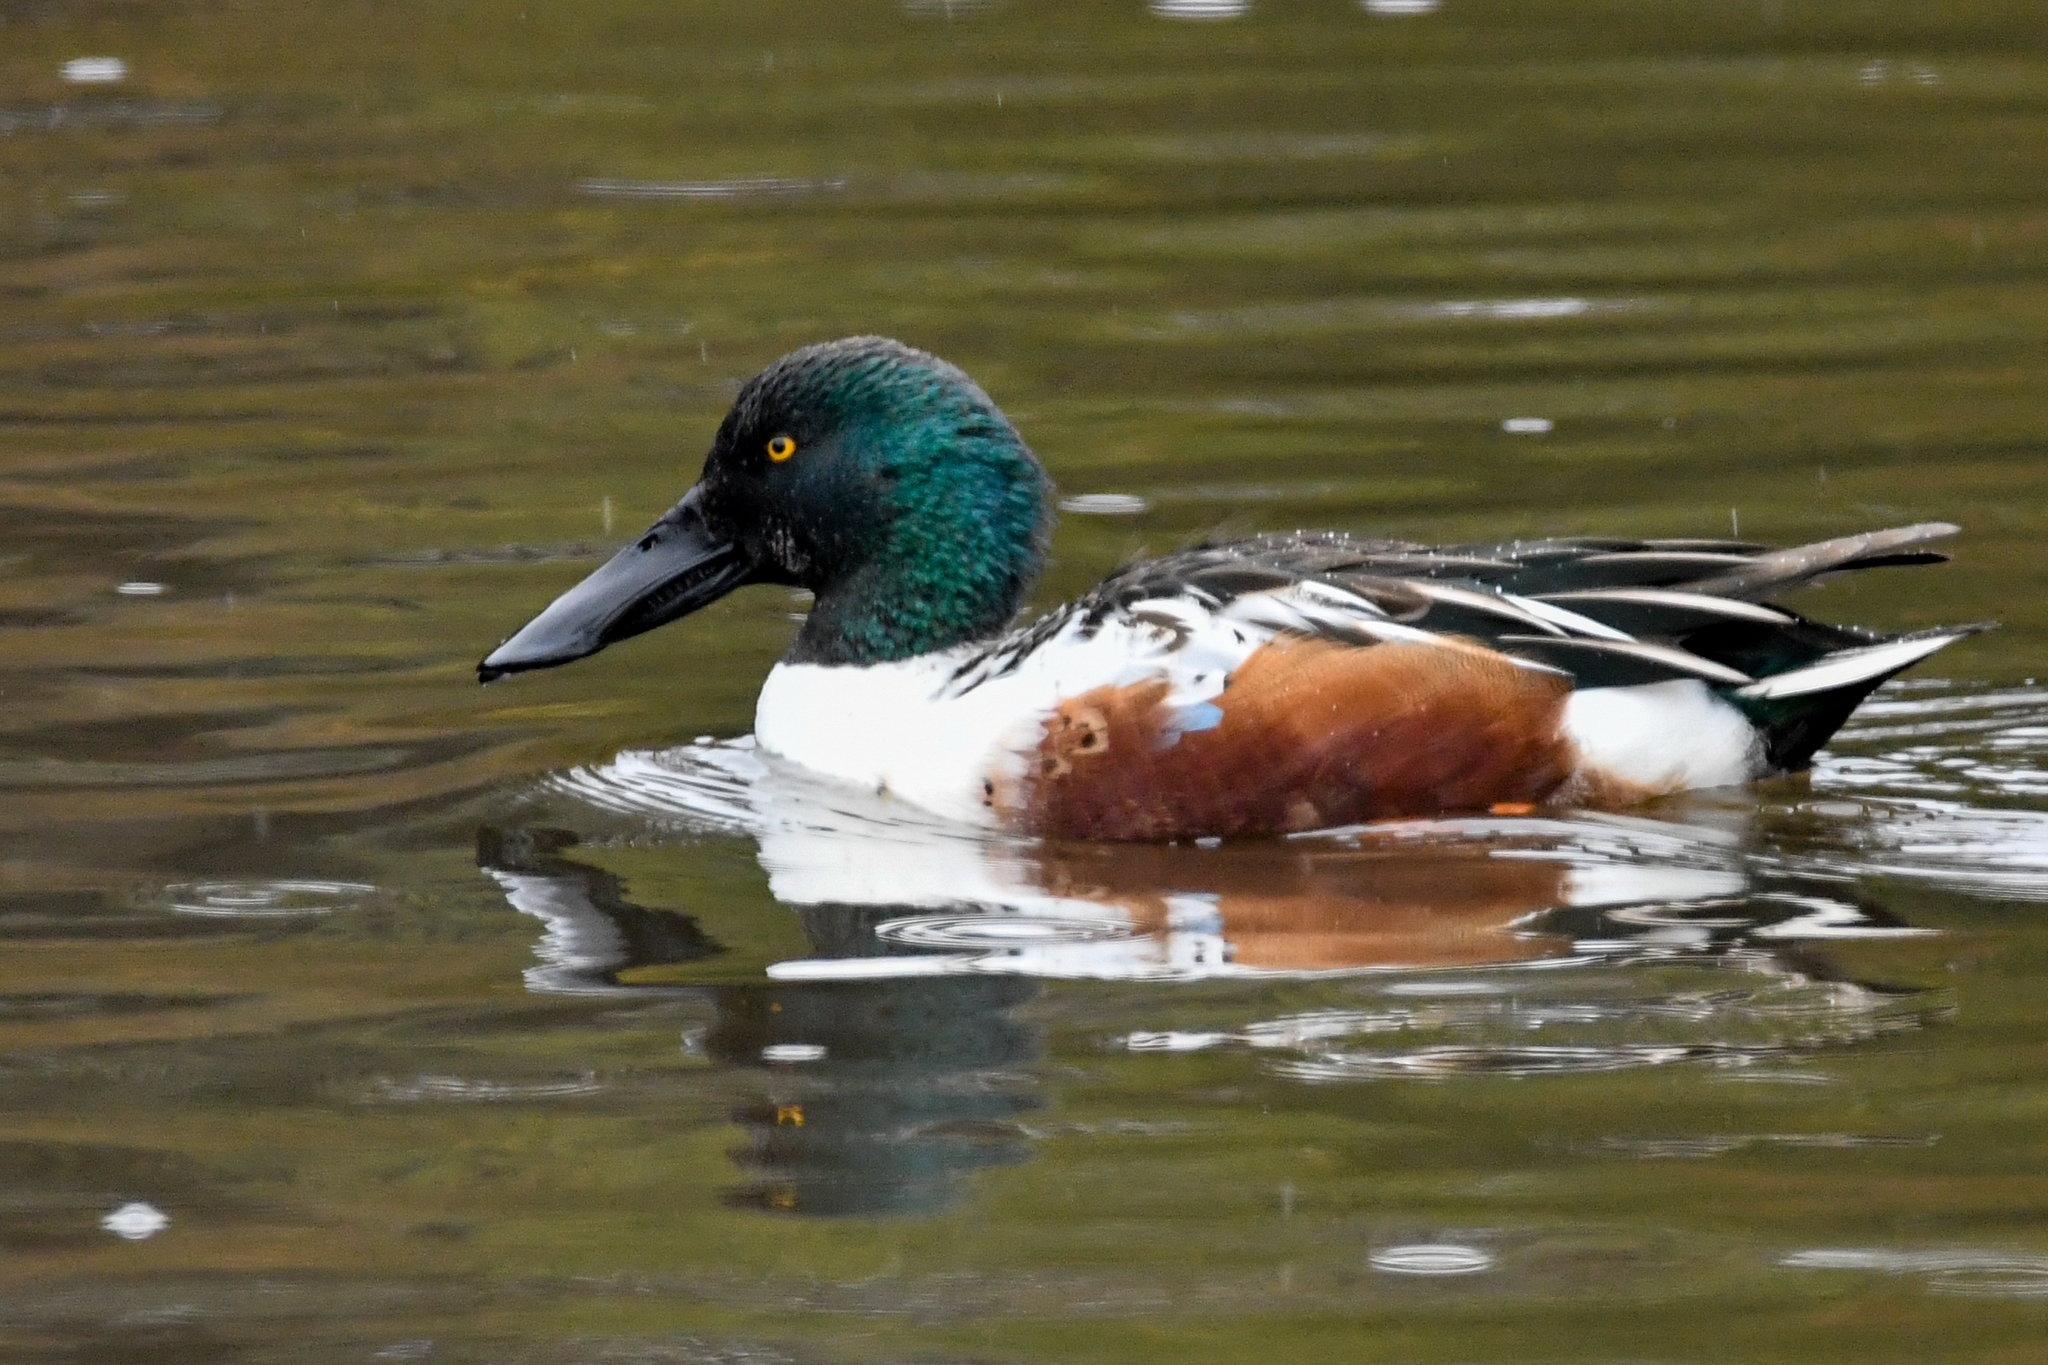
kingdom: Animalia
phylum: Chordata
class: Aves
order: Anseriformes
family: Anatidae
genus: Spatula
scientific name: Spatula clypeata
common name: Northern shoveler
